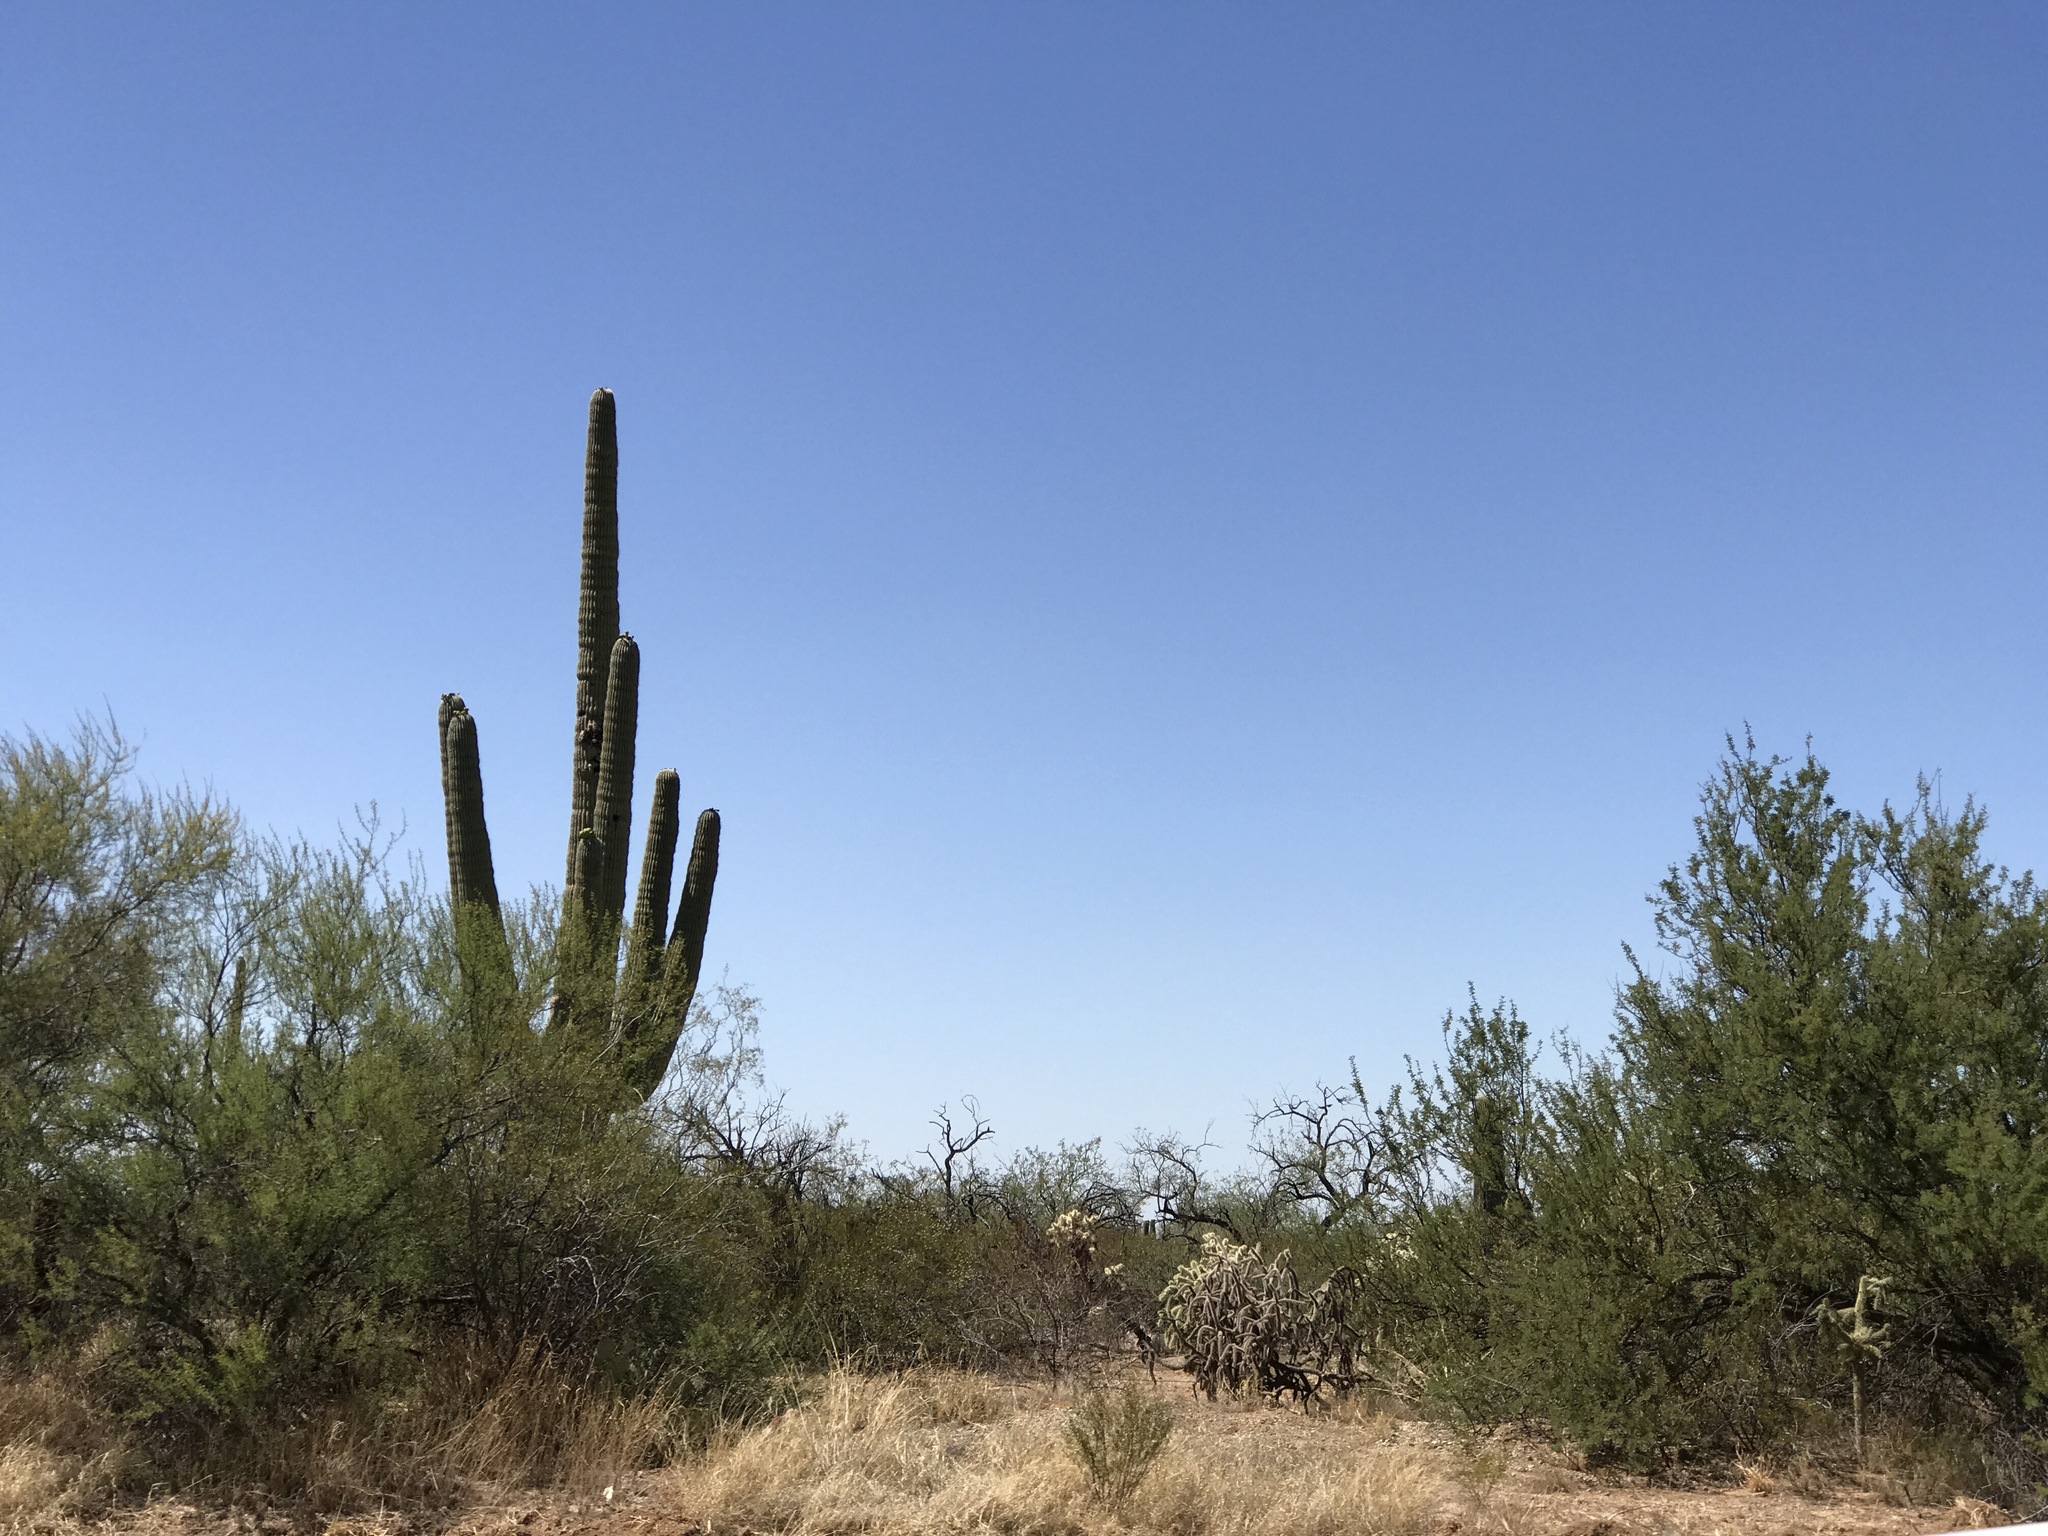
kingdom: Plantae
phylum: Tracheophyta
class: Magnoliopsida
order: Caryophyllales
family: Cactaceae
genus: Carnegiea
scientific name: Carnegiea gigantea
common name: Saguaro
